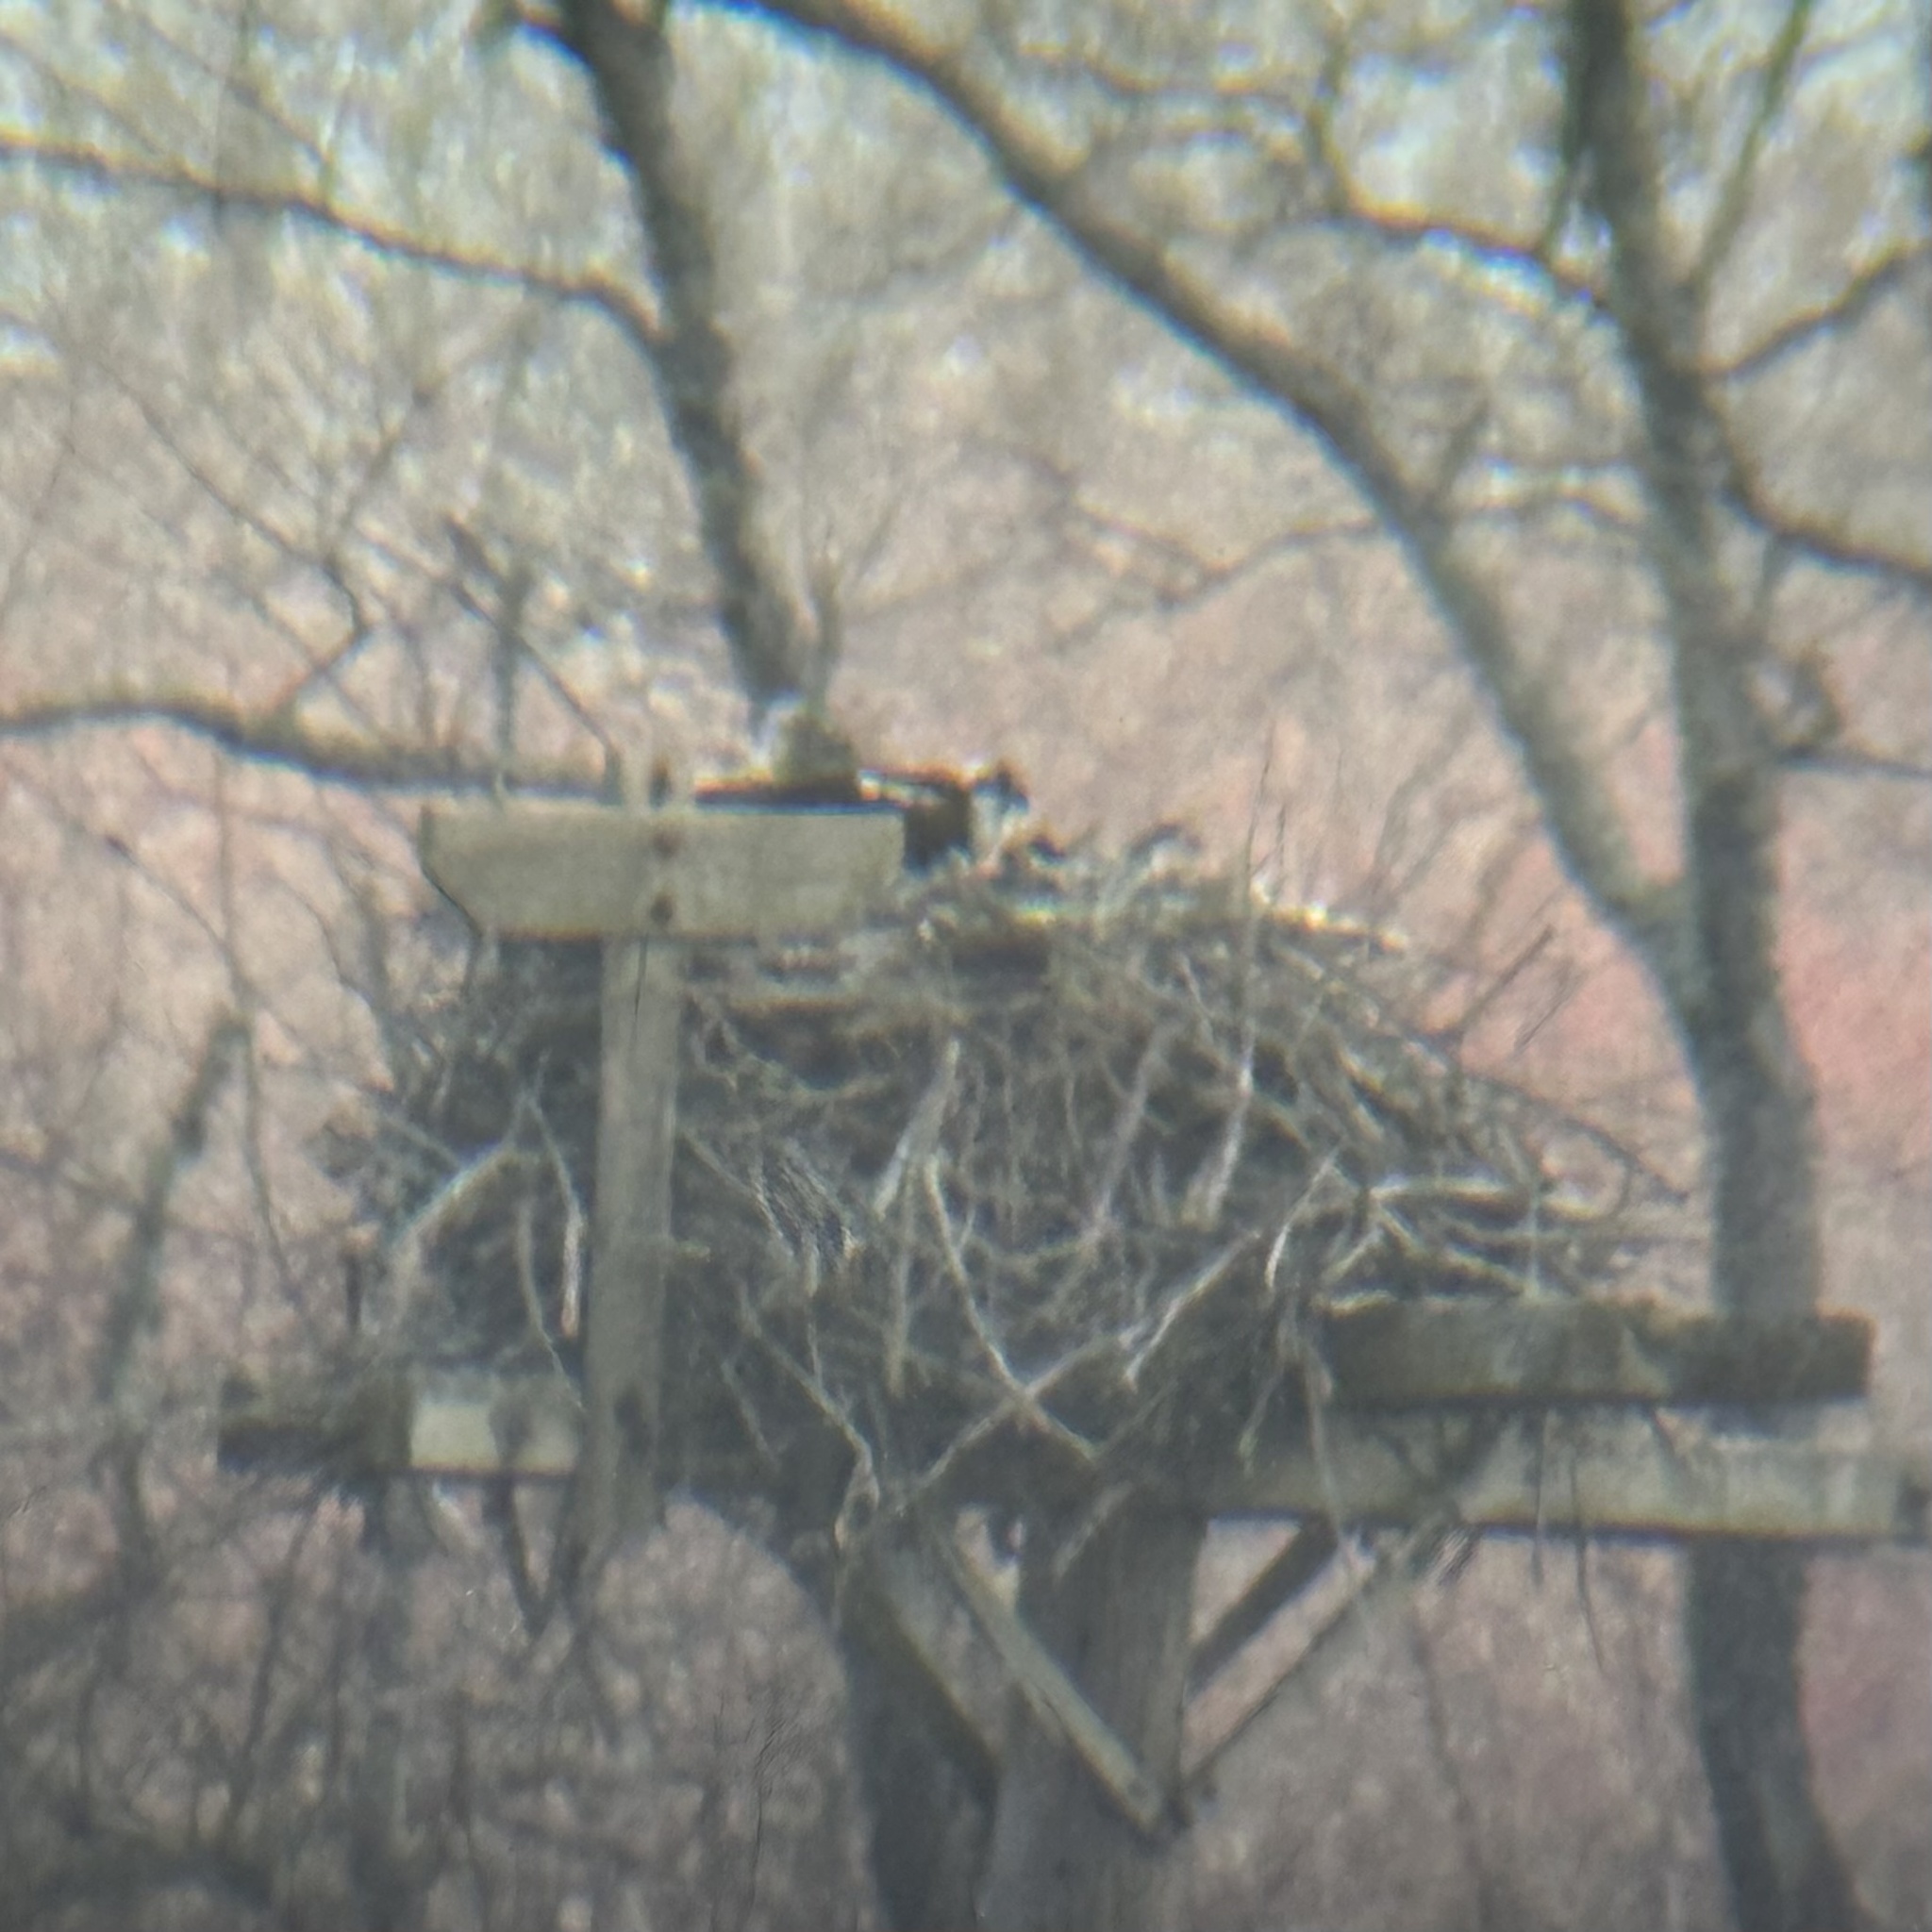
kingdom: Animalia
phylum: Chordata
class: Aves
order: Accipitriformes
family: Pandionidae
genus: Pandion
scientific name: Pandion haliaetus
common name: Osprey
